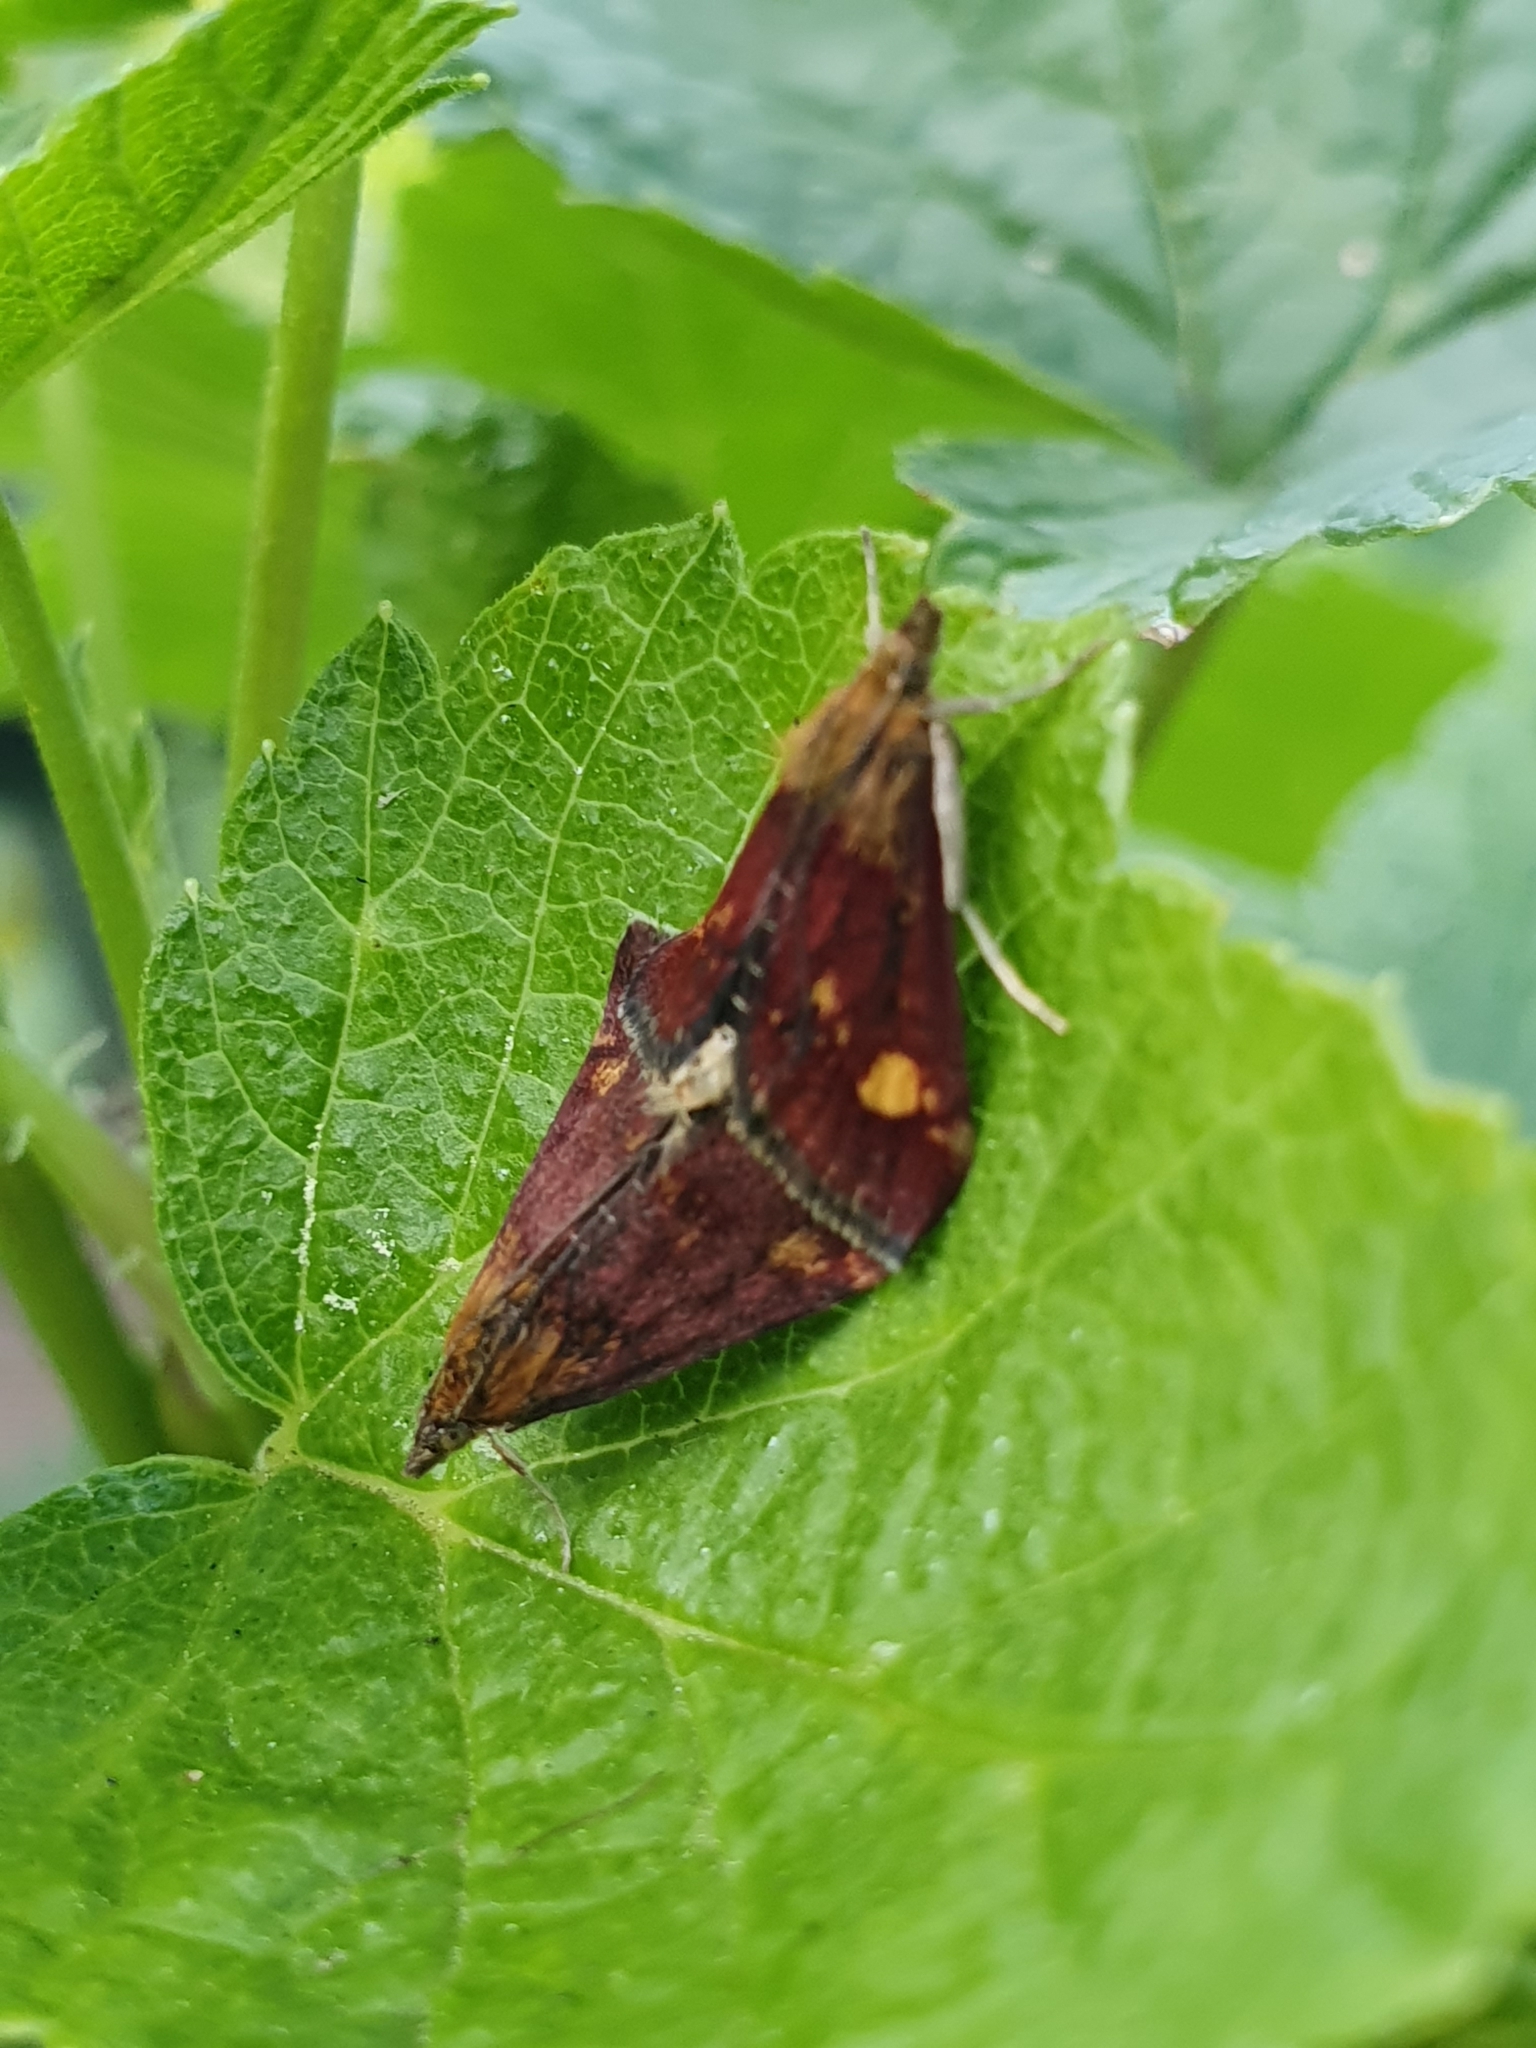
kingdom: Animalia
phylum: Arthropoda
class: Insecta
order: Lepidoptera
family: Crambidae
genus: Pyrausta
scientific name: Pyrausta aurata
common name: Small purple & gold
